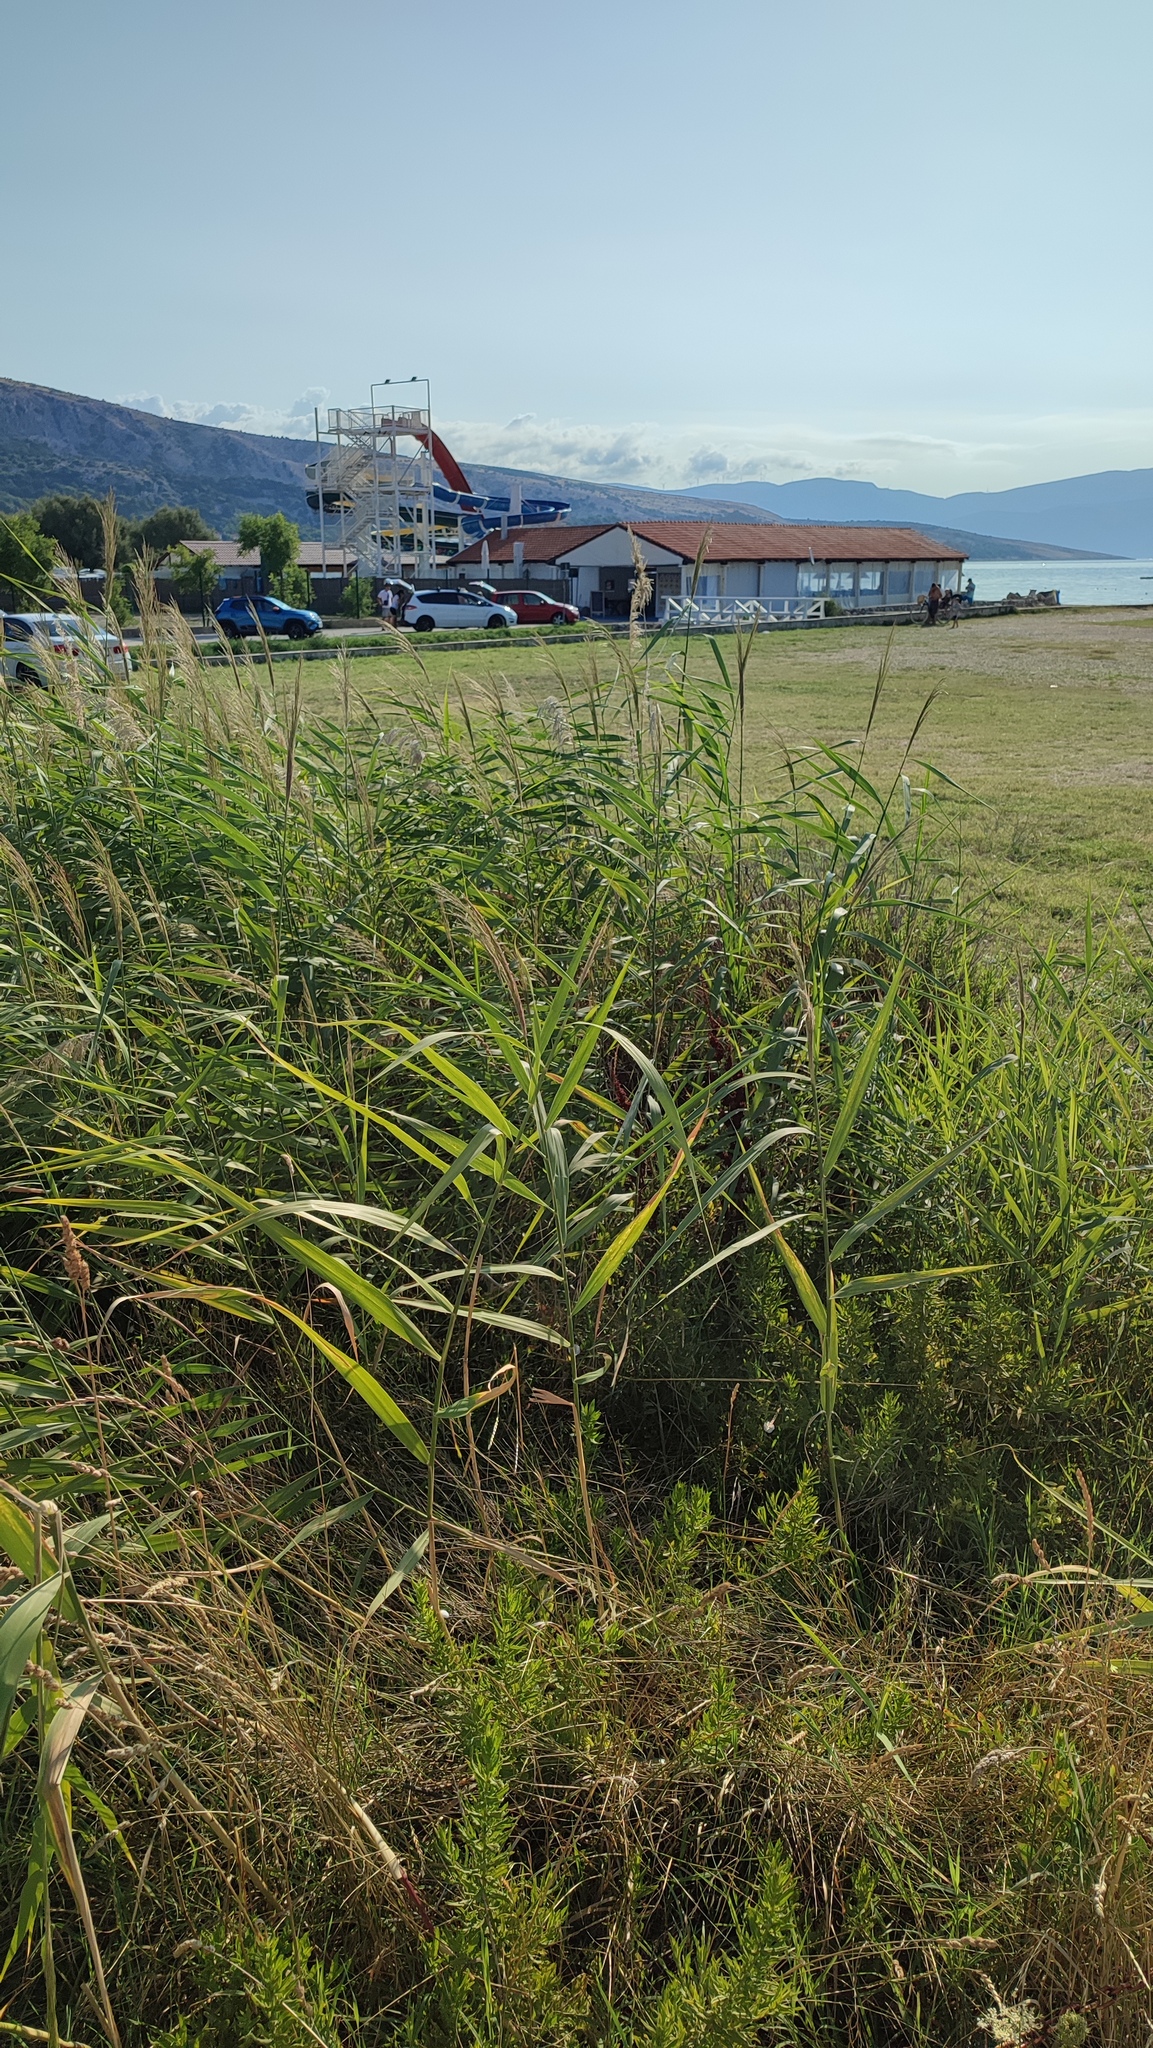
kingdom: Plantae
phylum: Tracheophyta
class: Liliopsida
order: Poales
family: Poaceae
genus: Phragmites
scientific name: Phragmites australis
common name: Common reed
